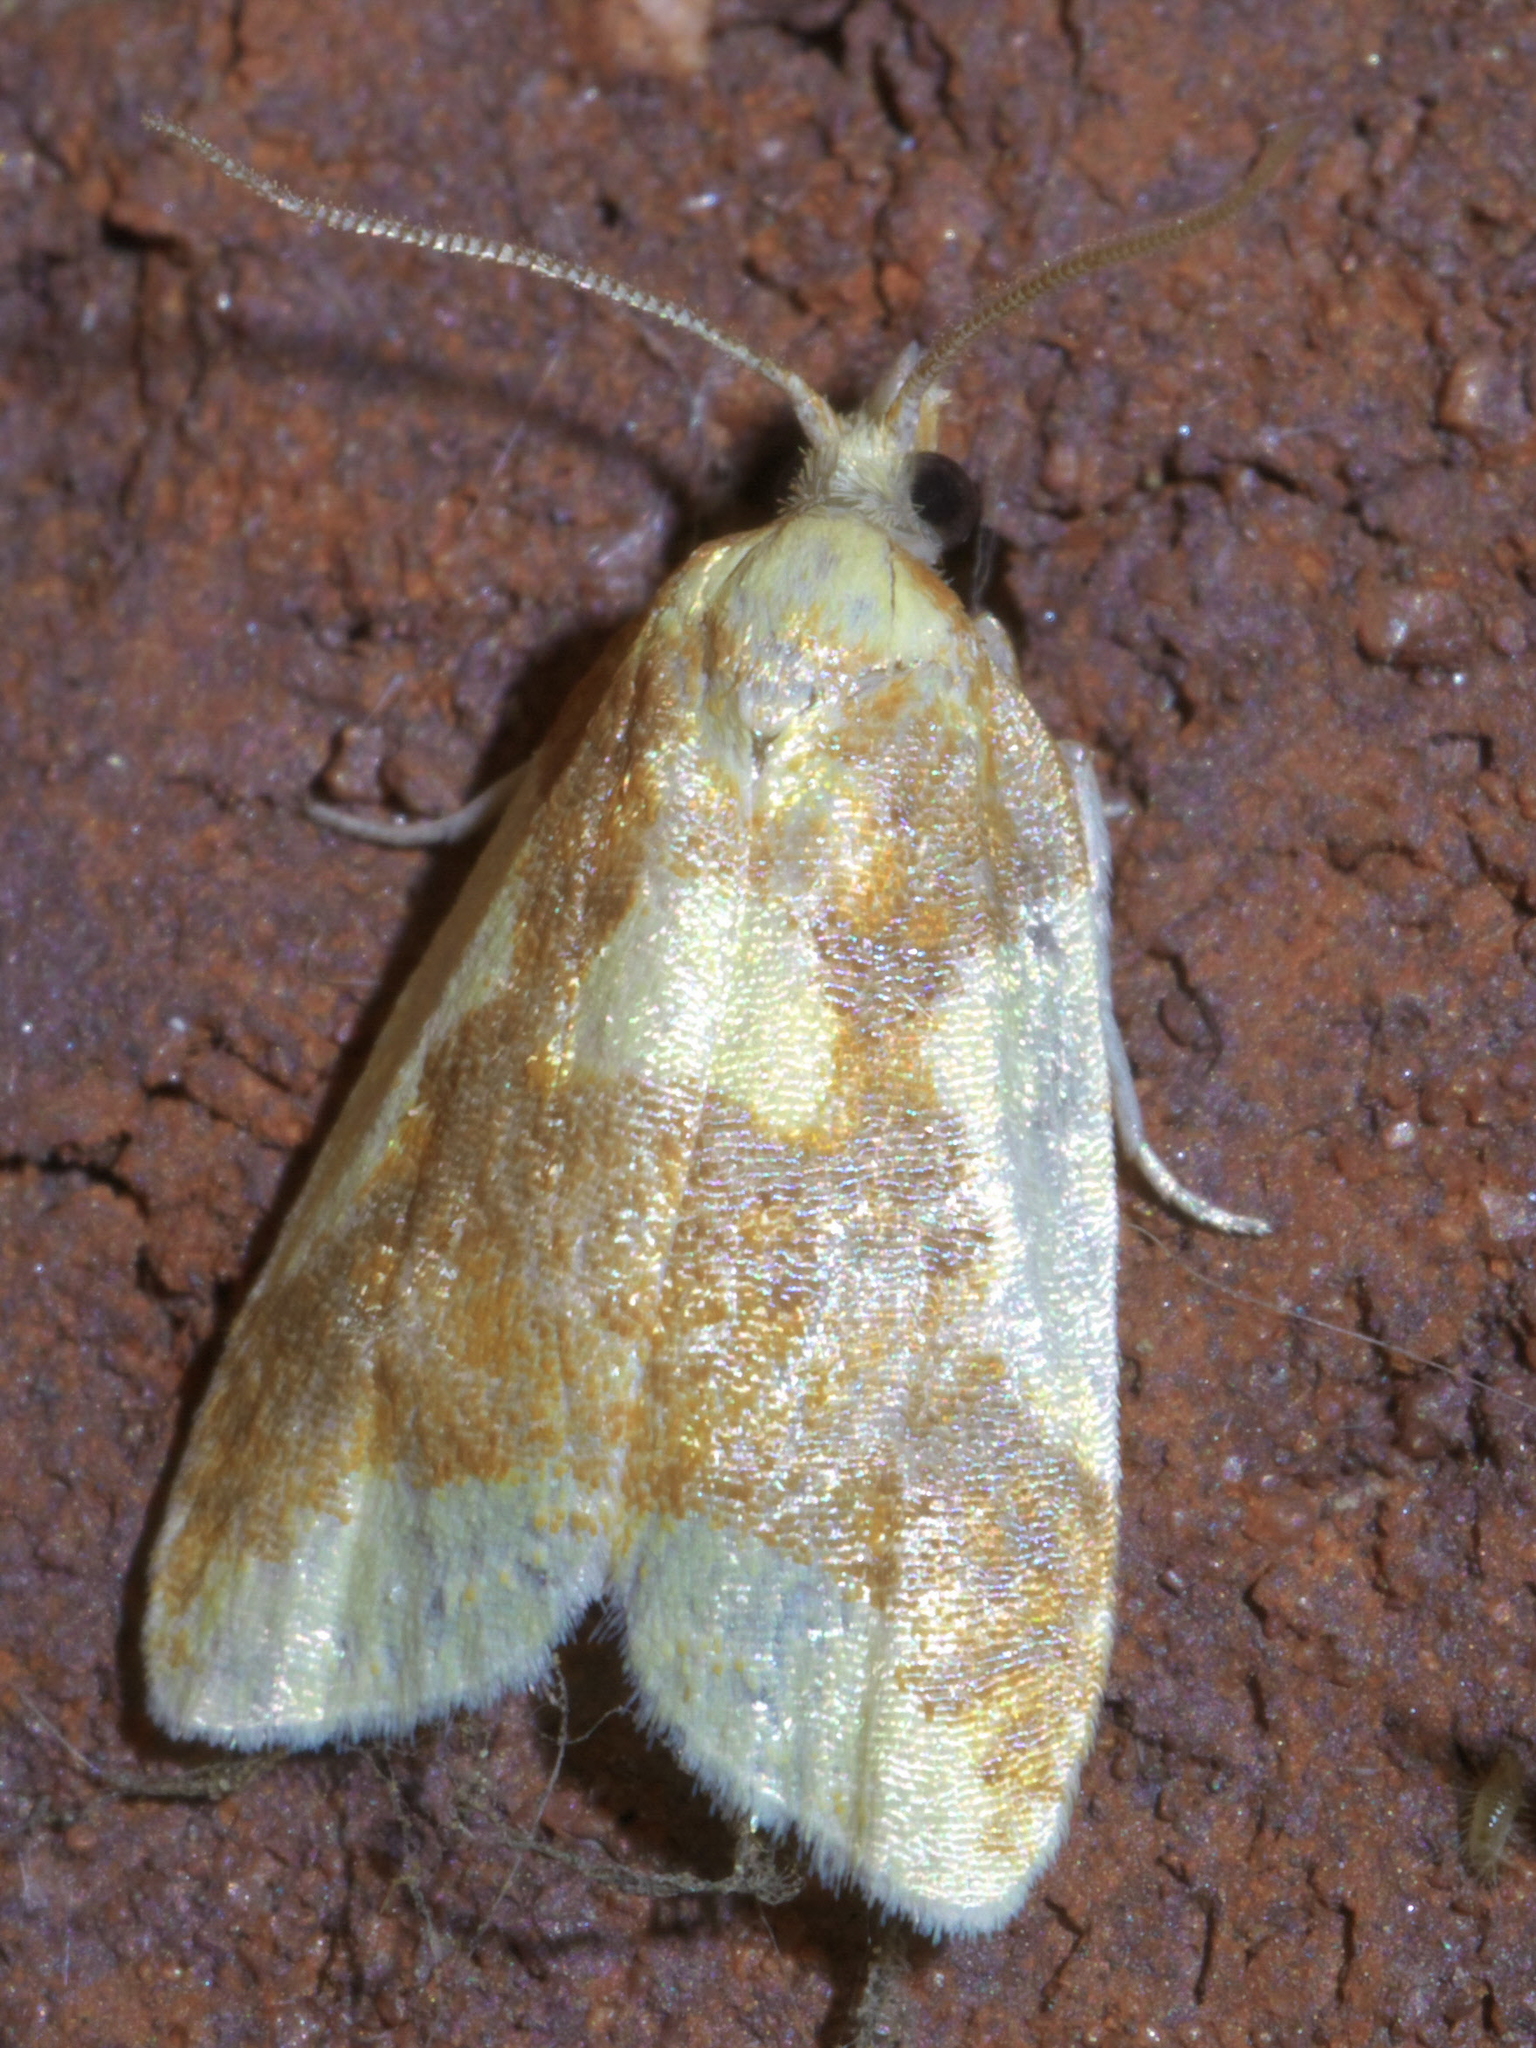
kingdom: Animalia
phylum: Arthropoda
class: Insecta
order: Lepidoptera
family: Tortricidae
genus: Sparganothis
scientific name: Sparganothis pulcherrimana
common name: Beautiful sparganothis
